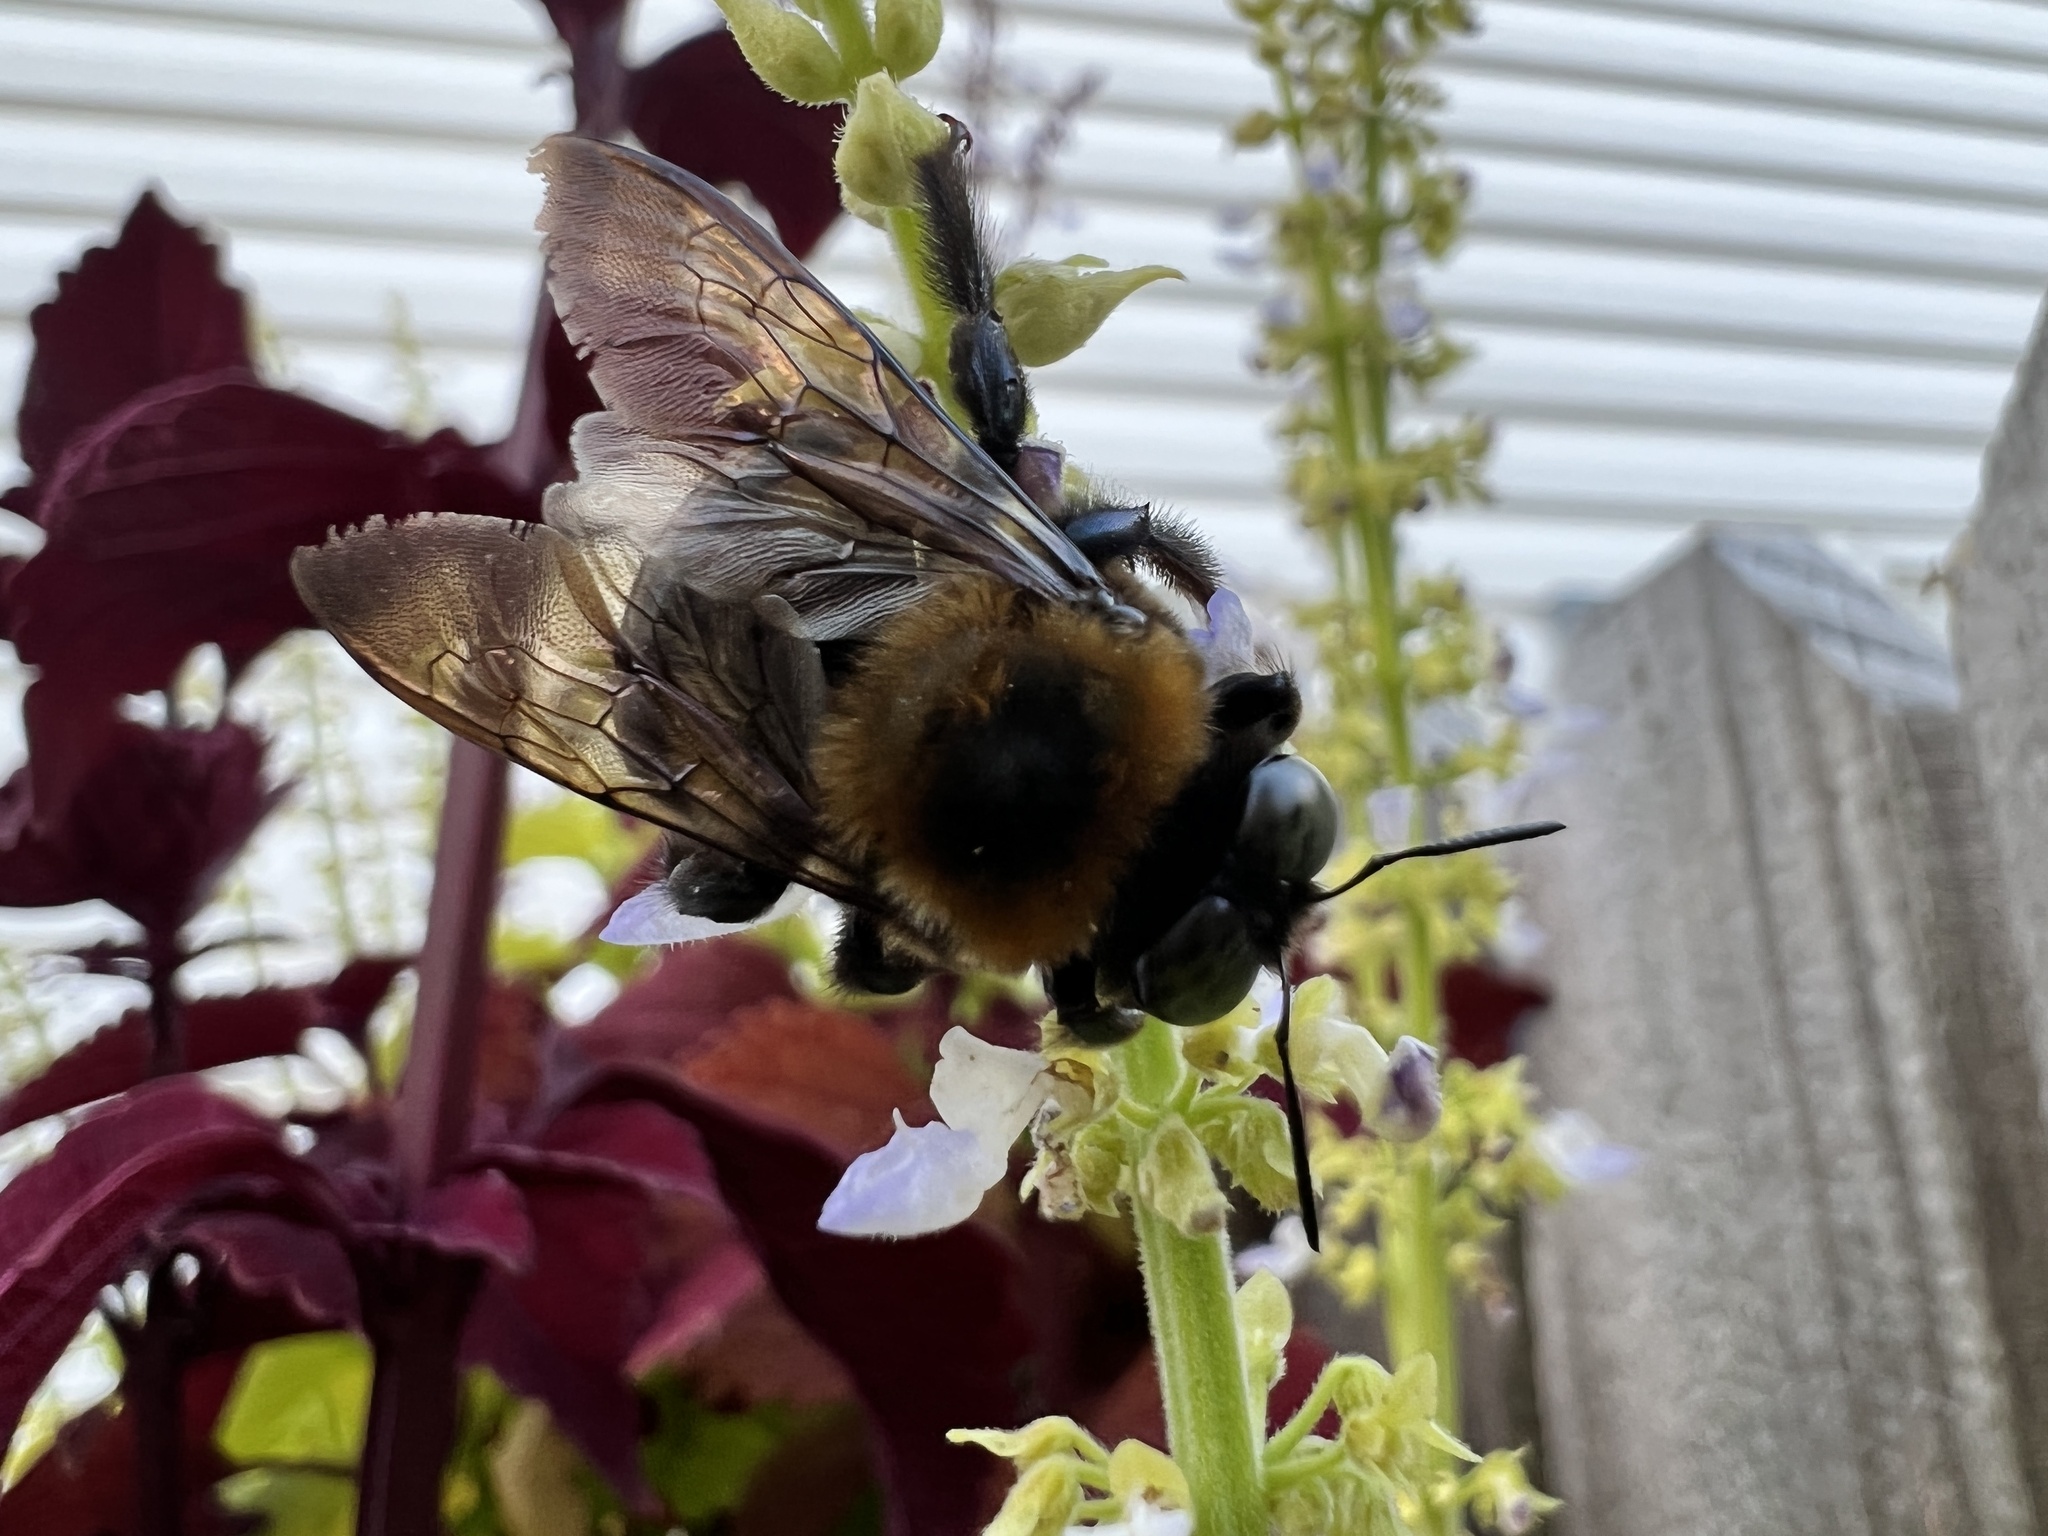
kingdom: Animalia
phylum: Arthropoda
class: Insecta
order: Hymenoptera
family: Apidae
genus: Xylocopa
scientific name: Xylocopa virginica
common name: Carpenter bee
